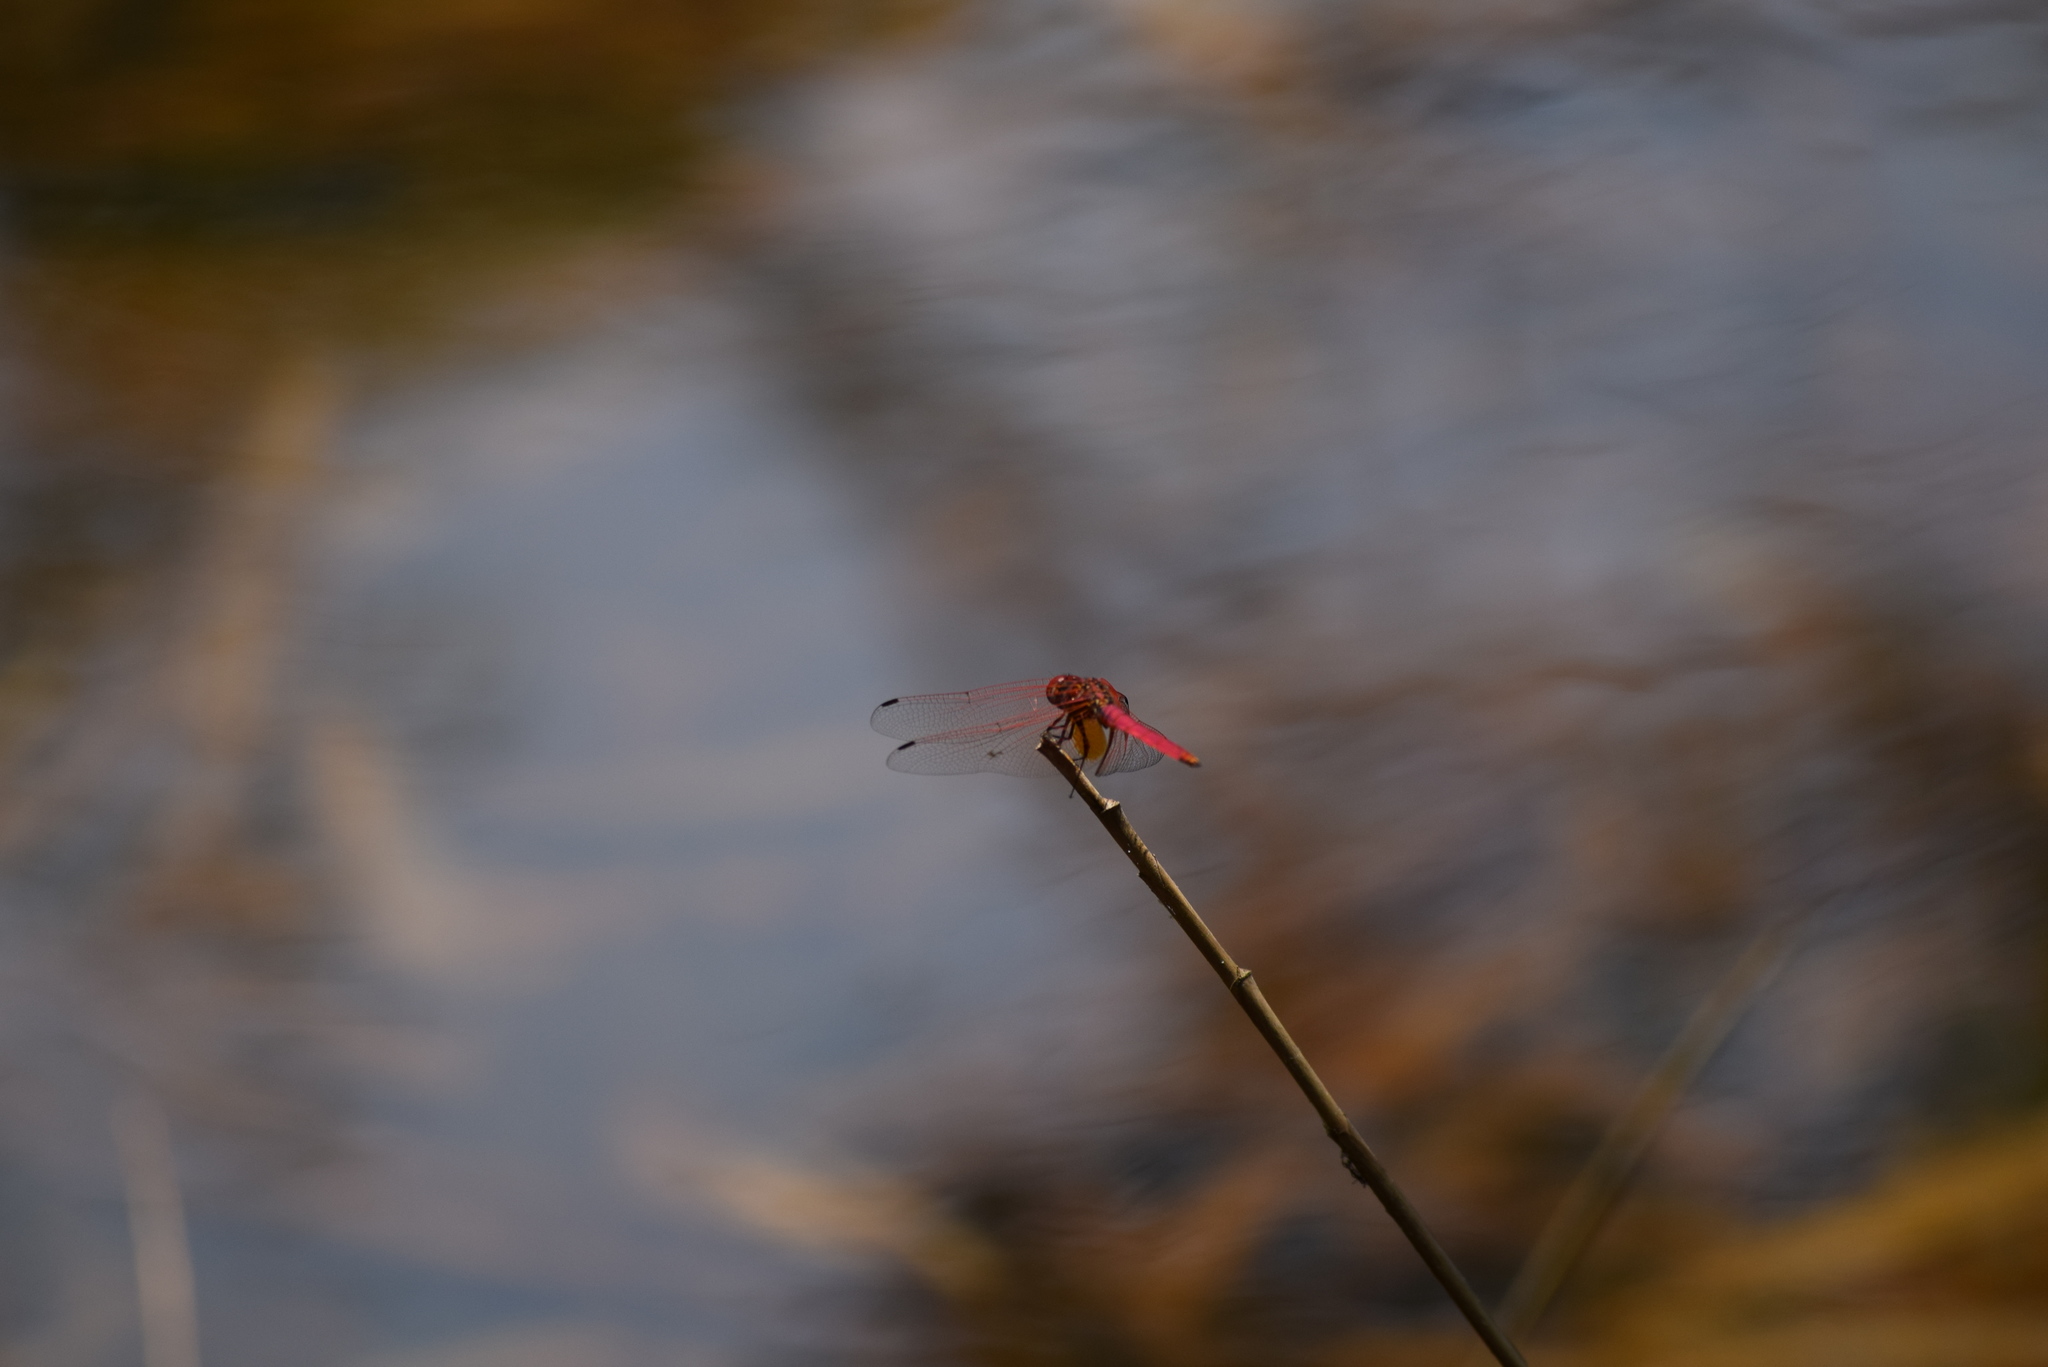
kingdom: Animalia
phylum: Arthropoda
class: Insecta
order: Odonata
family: Libellulidae
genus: Trithemis
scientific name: Trithemis aurora
